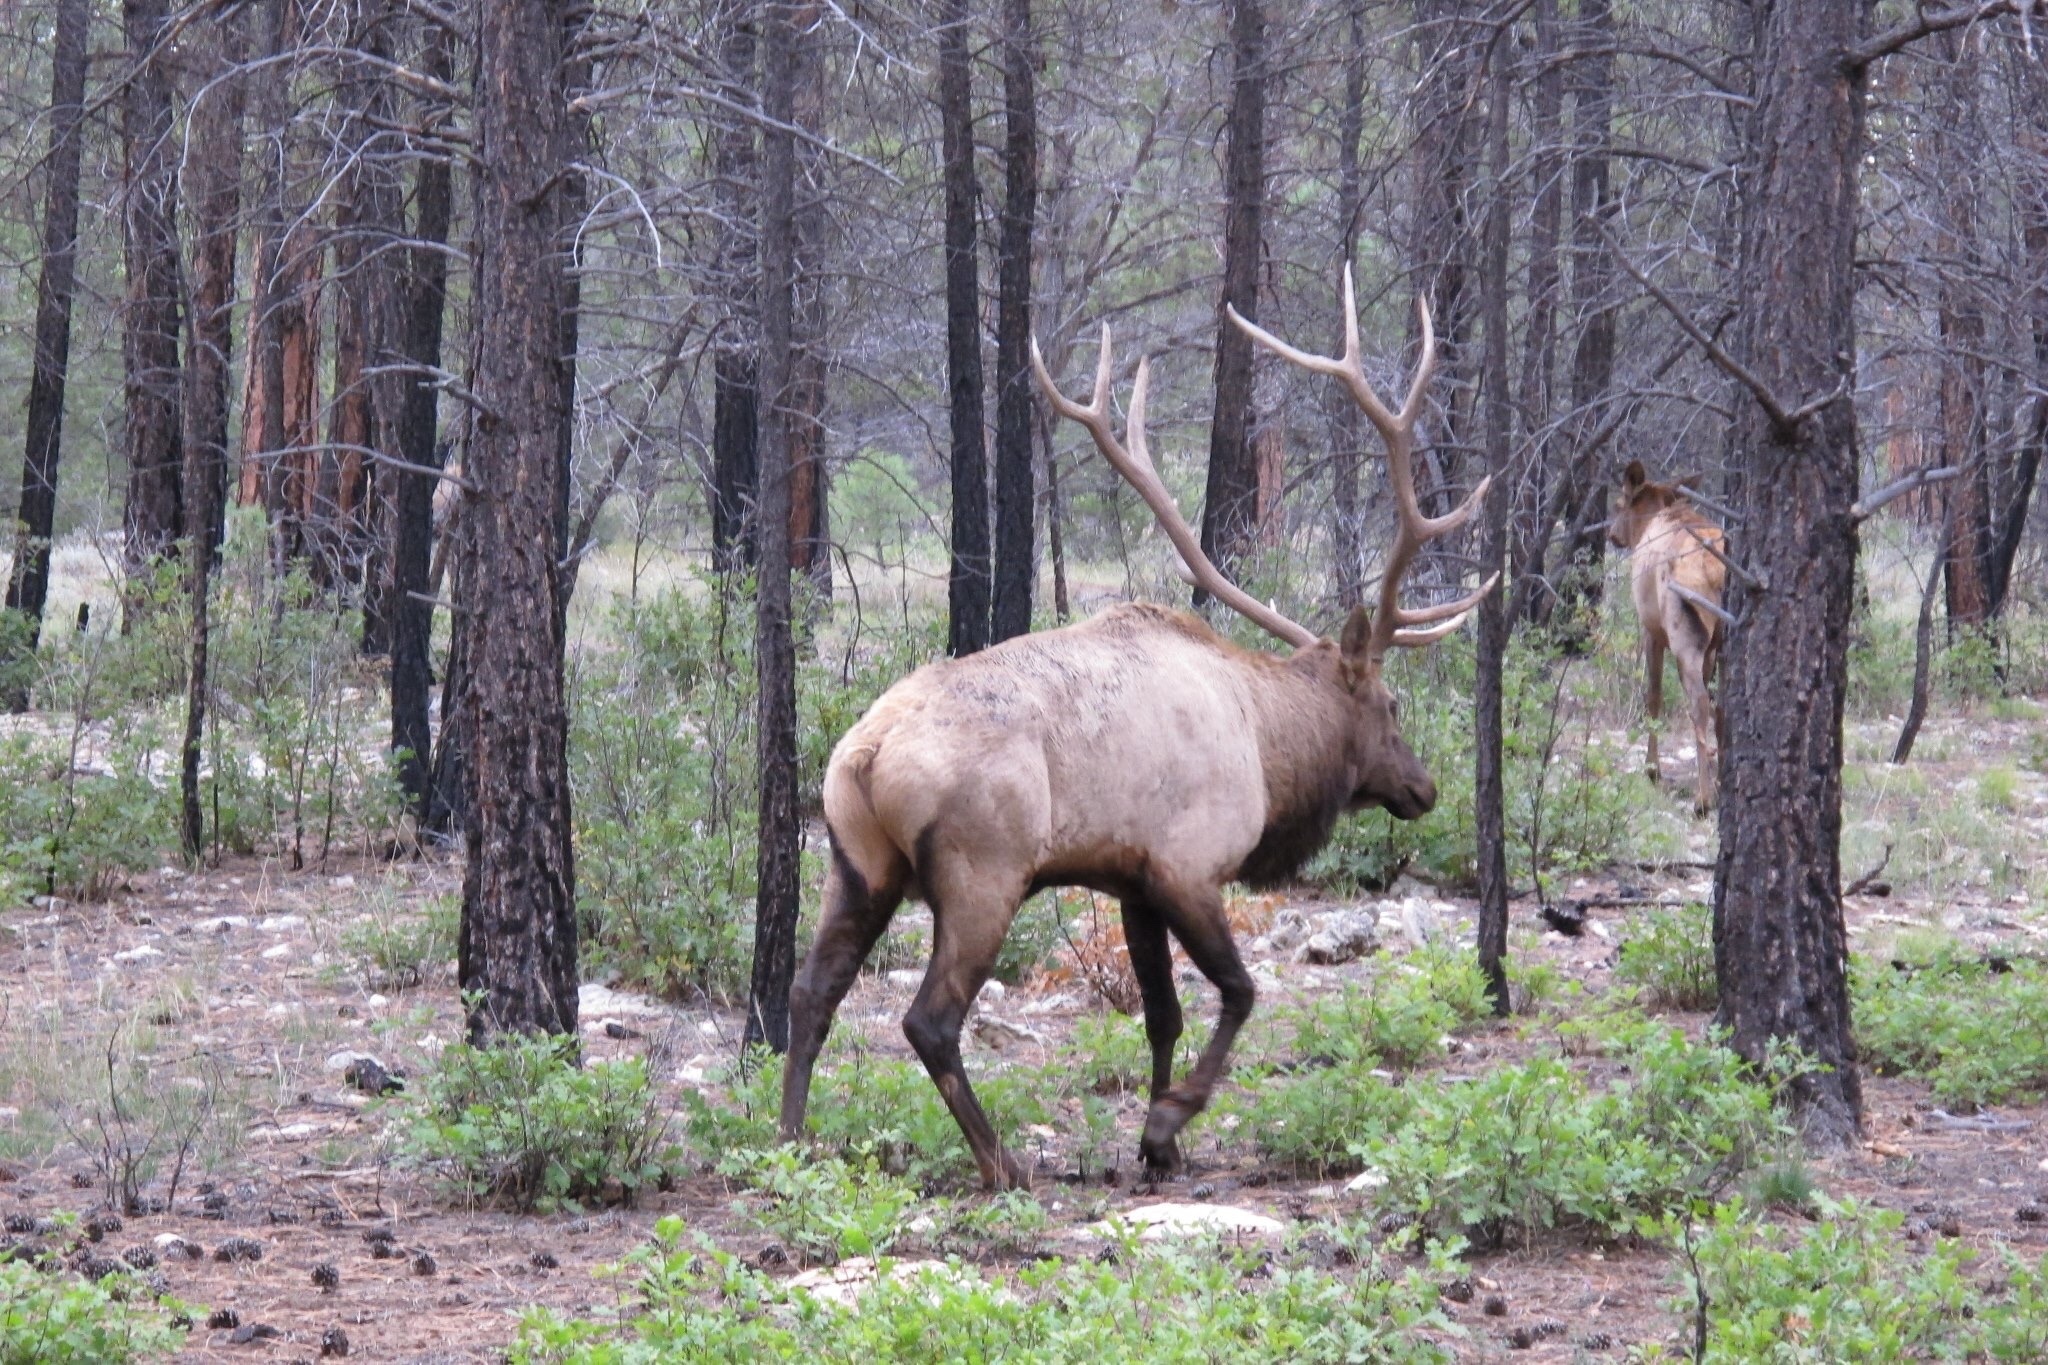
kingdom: Animalia
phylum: Chordata
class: Mammalia
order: Artiodactyla
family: Cervidae
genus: Cervus
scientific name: Cervus elaphus
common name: Red deer
